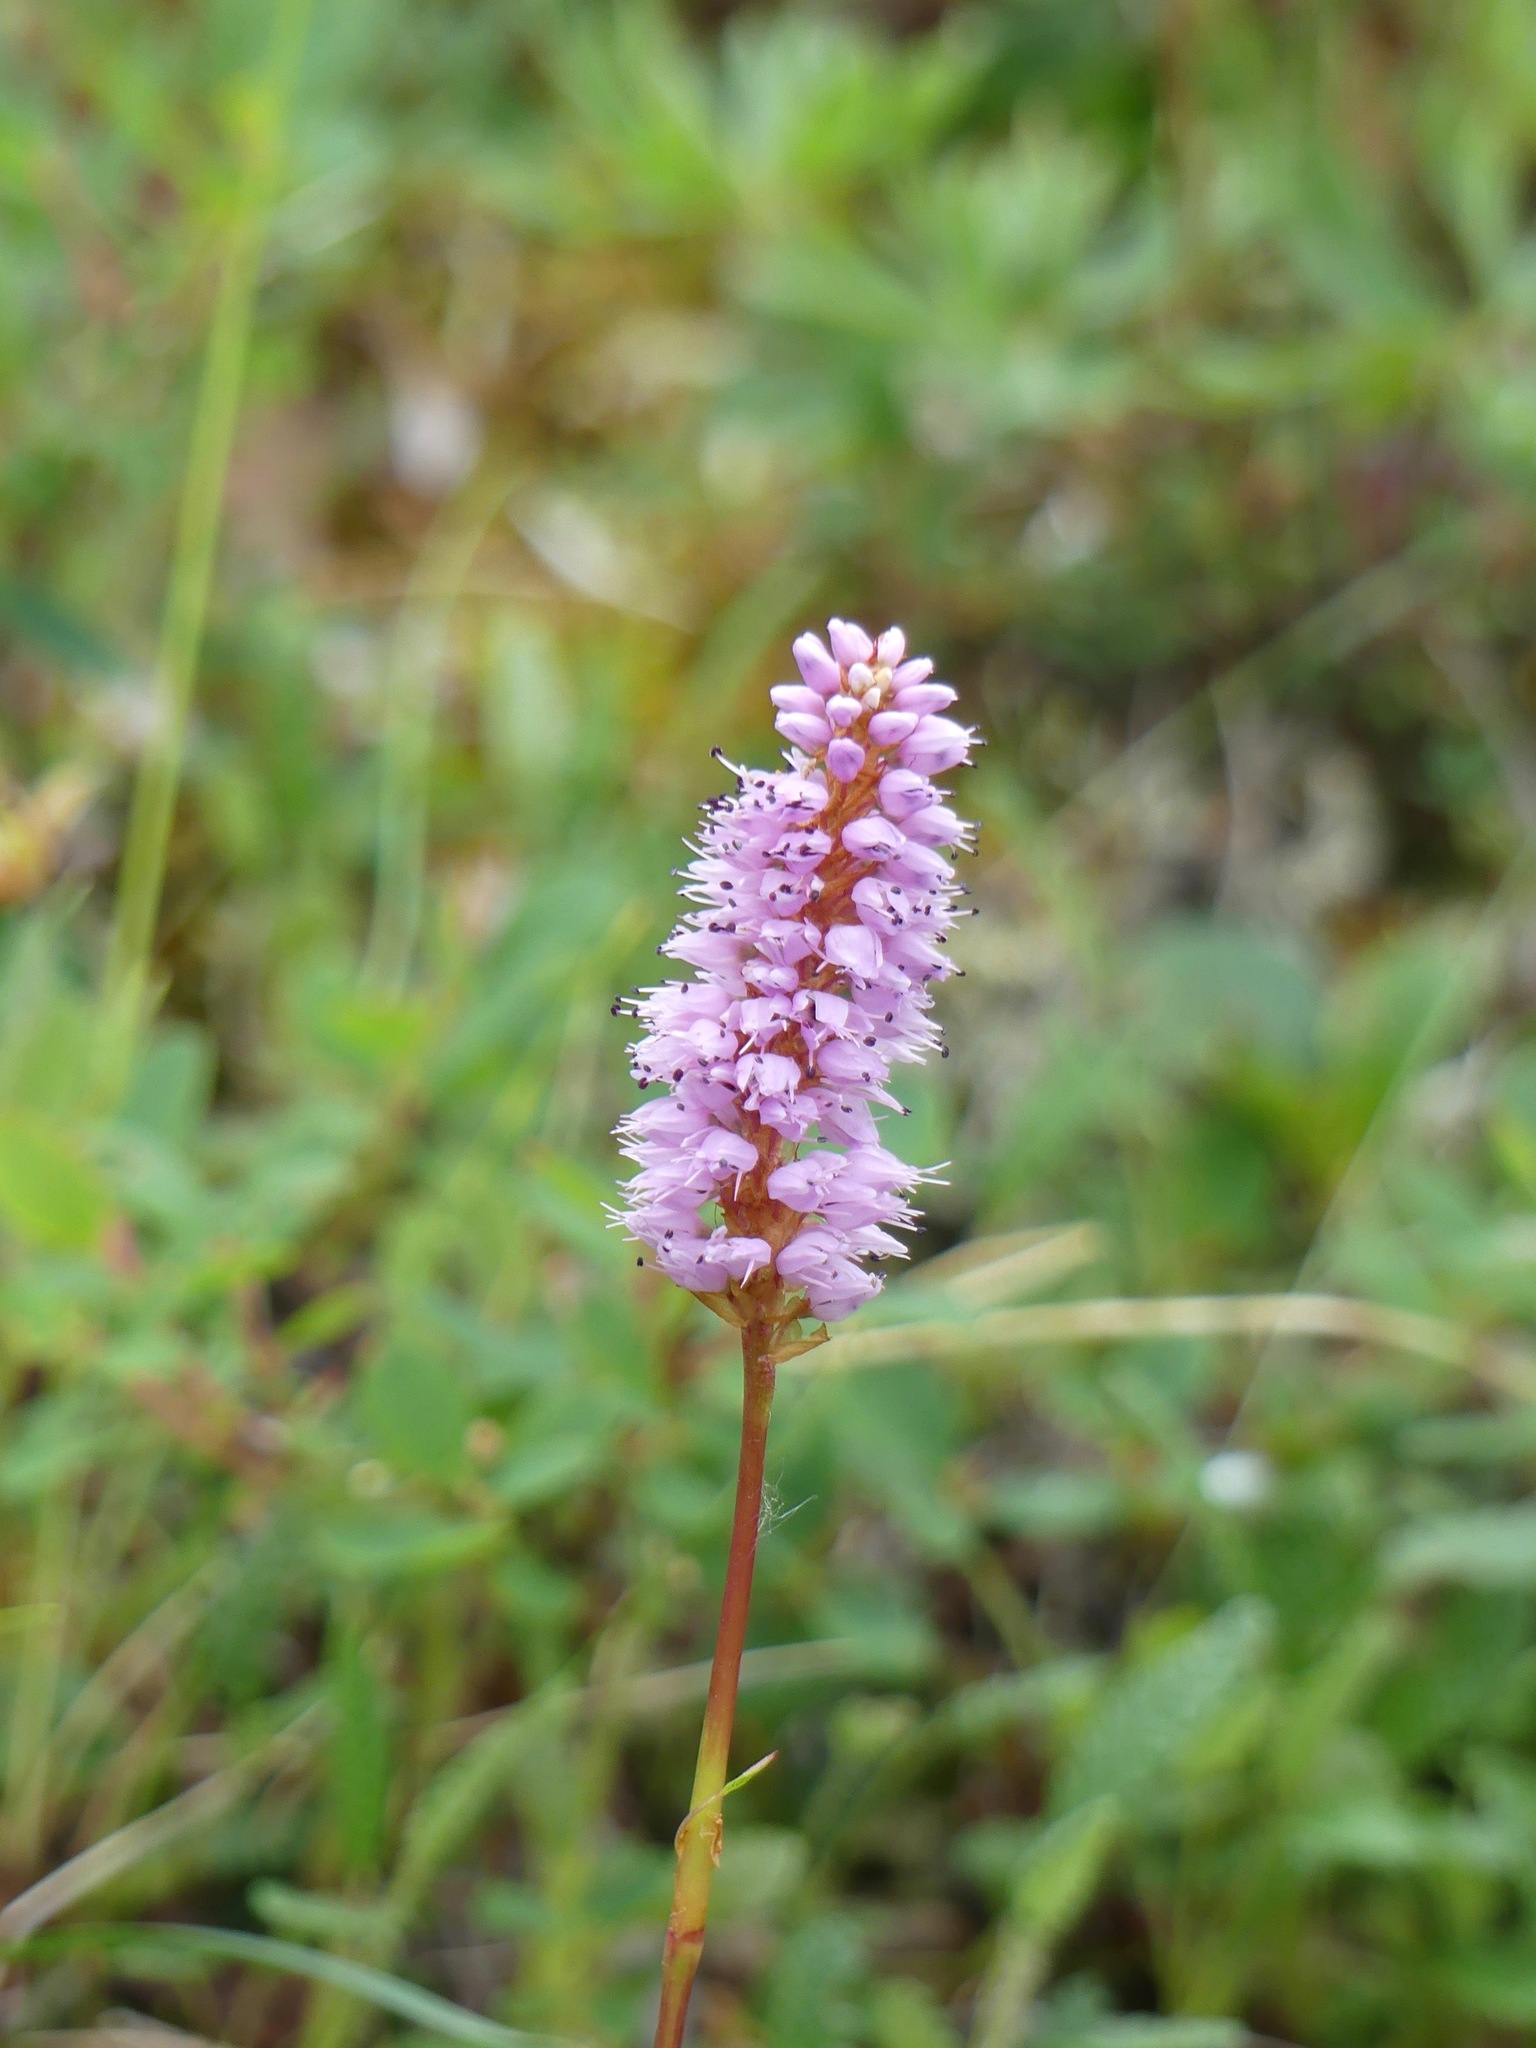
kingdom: Plantae
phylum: Tracheophyta
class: Magnoliopsida
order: Caryophyllales
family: Polygonaceae
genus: Bistorta
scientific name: Bistorta plumosa
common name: Meadow bistort
